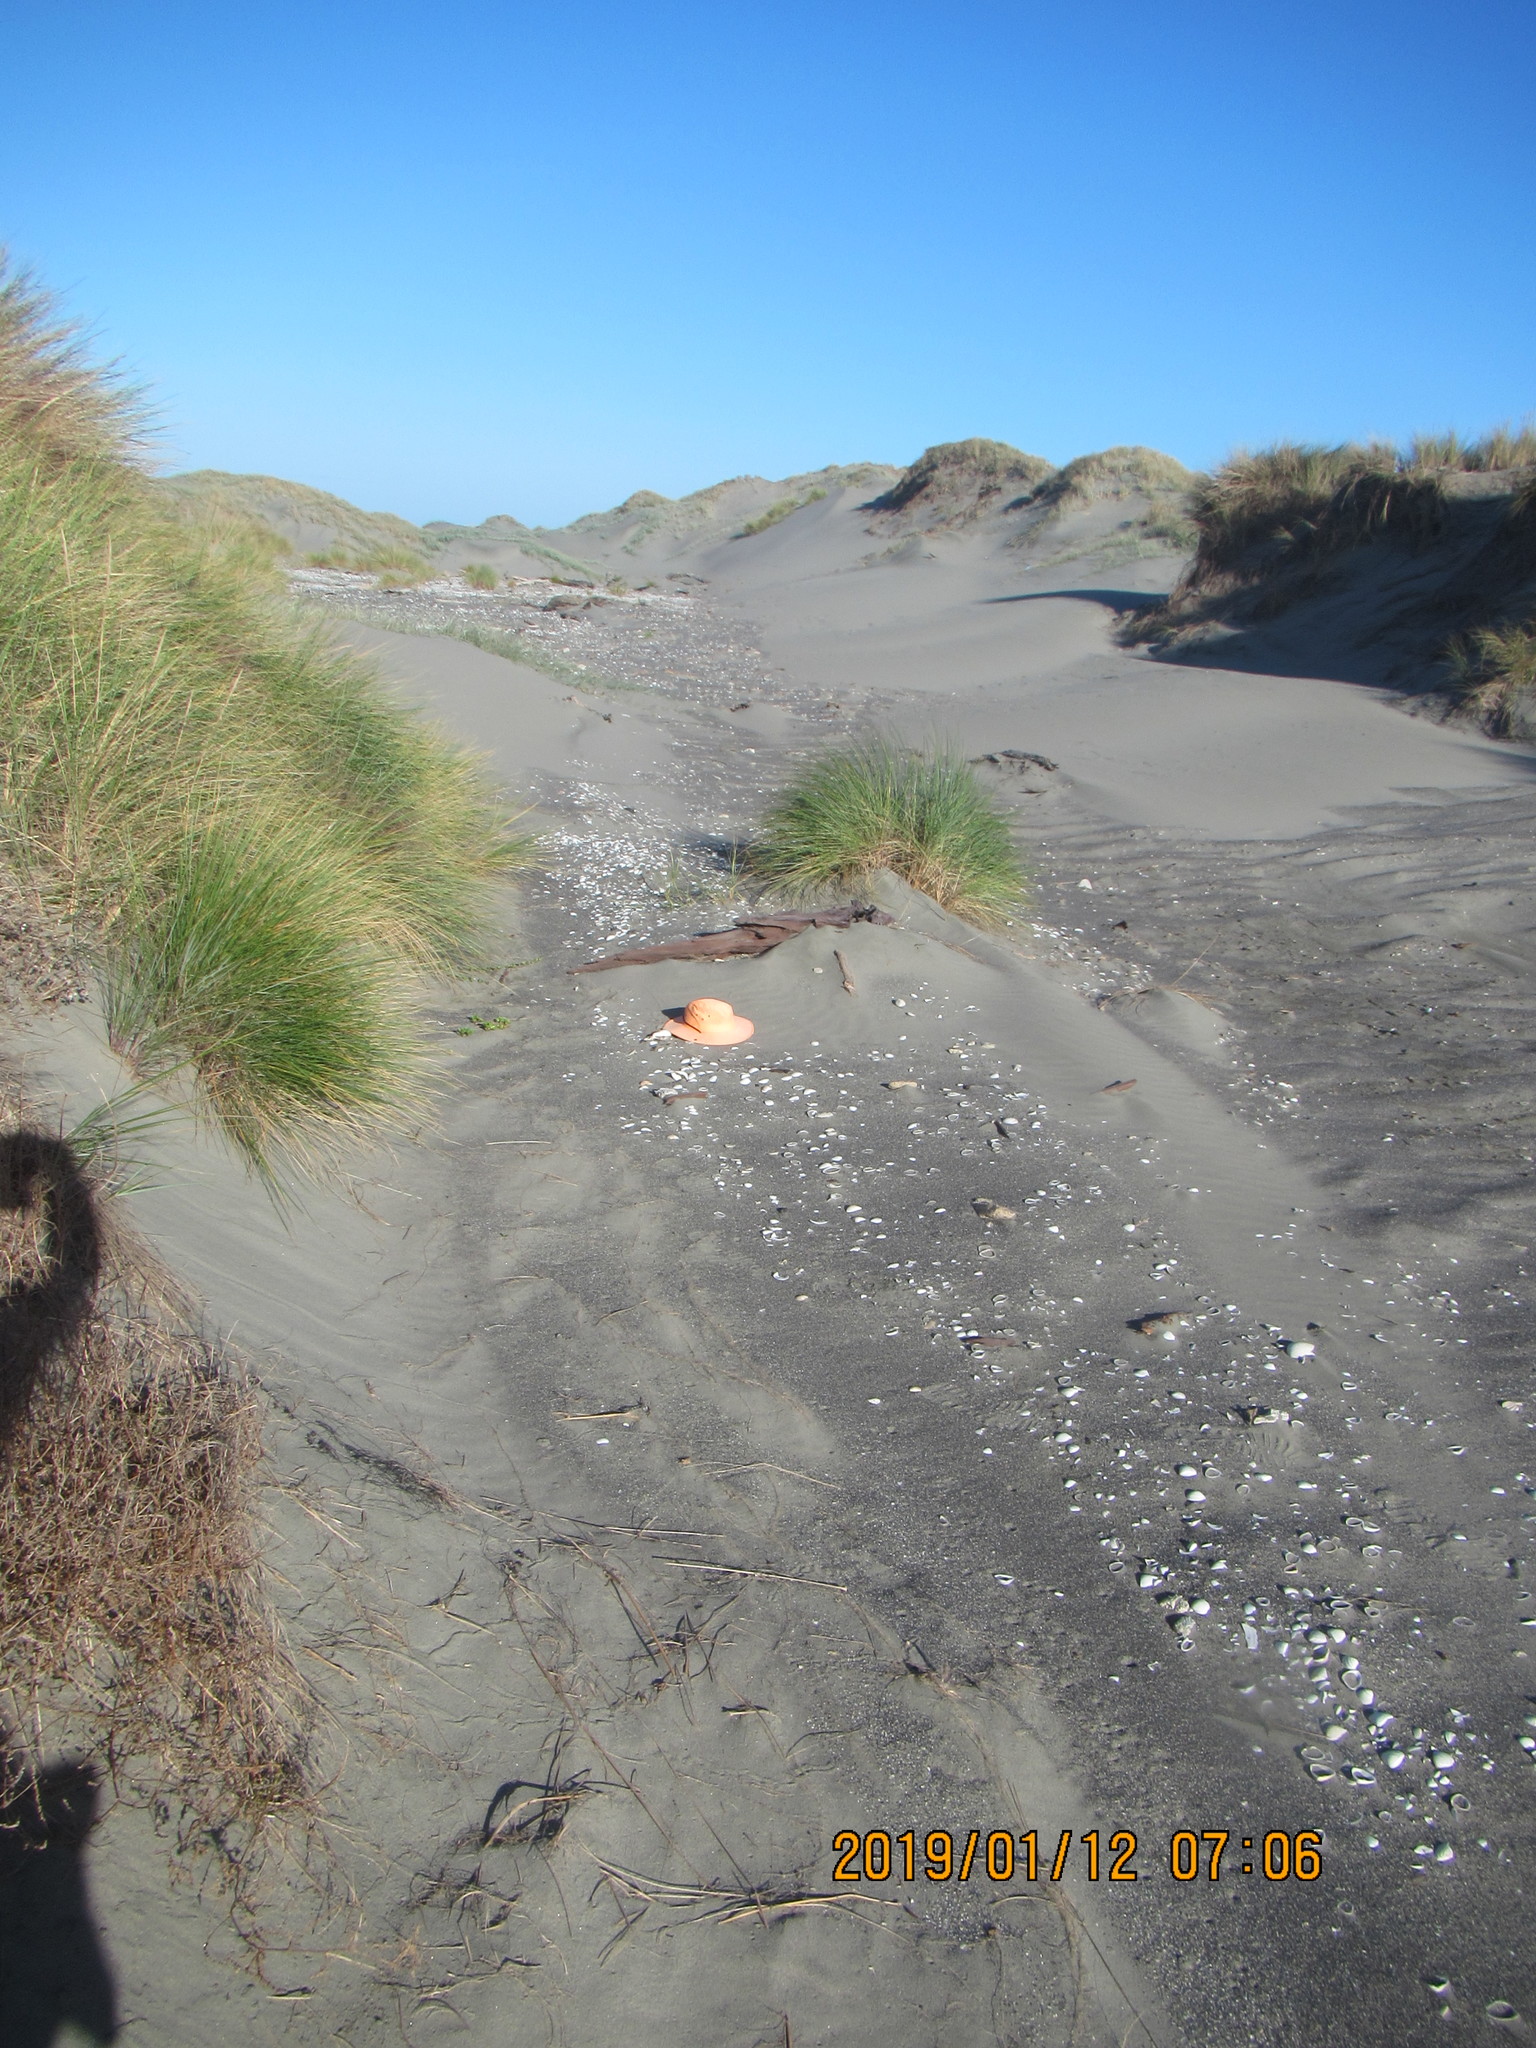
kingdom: Animalia
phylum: Mollusca
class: Gastropoda
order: Neogastropoda
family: Volutidae
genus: Alcithoe
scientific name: Alcithoe arabica
